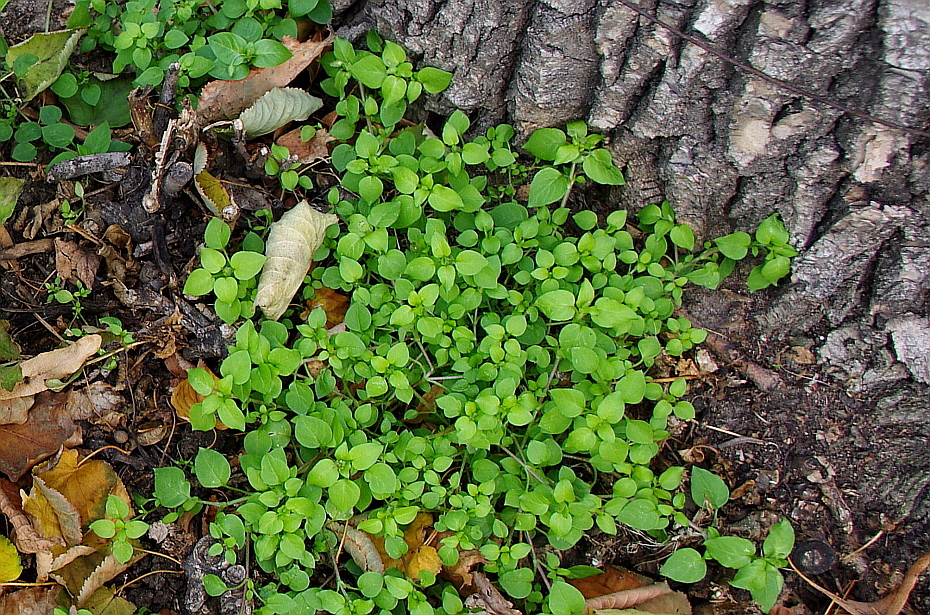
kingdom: Plantae
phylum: Tracheophyta
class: Magnoliopsida
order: Caryophyllales
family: Caryophyllaceae
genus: Stellaria
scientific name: Stellaria media
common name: Common chickweed
